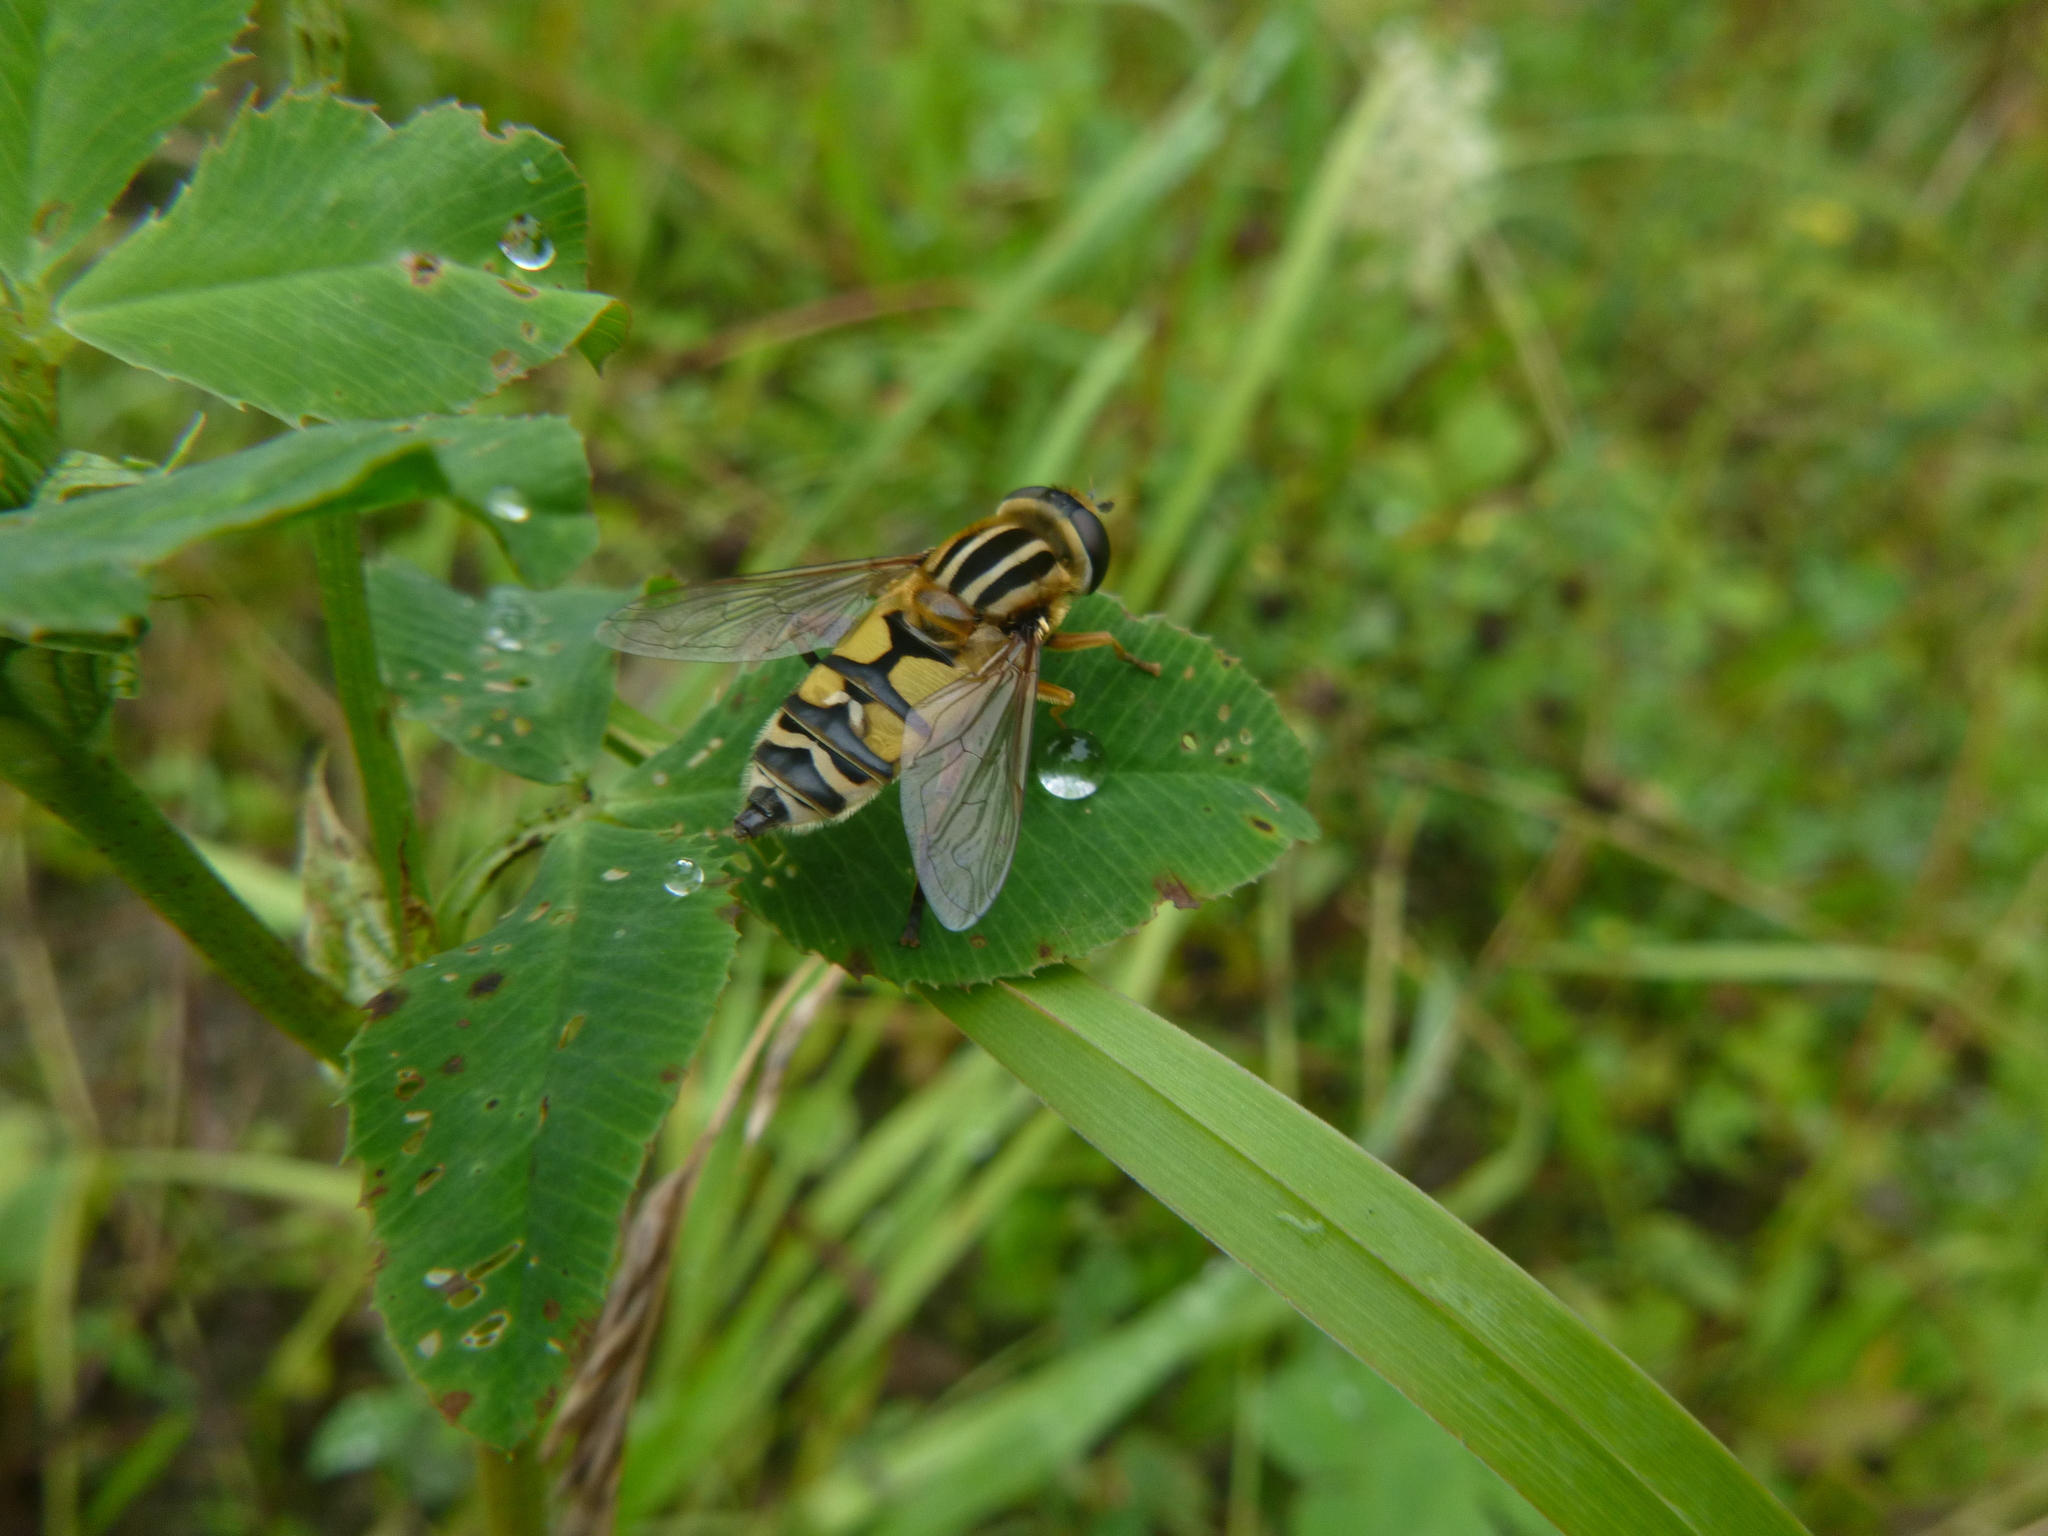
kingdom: Animalia
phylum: Arthropoda
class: Insecta
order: Diptera
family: Syrphidae
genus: Helophilus
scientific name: Helophilus trivittatus
